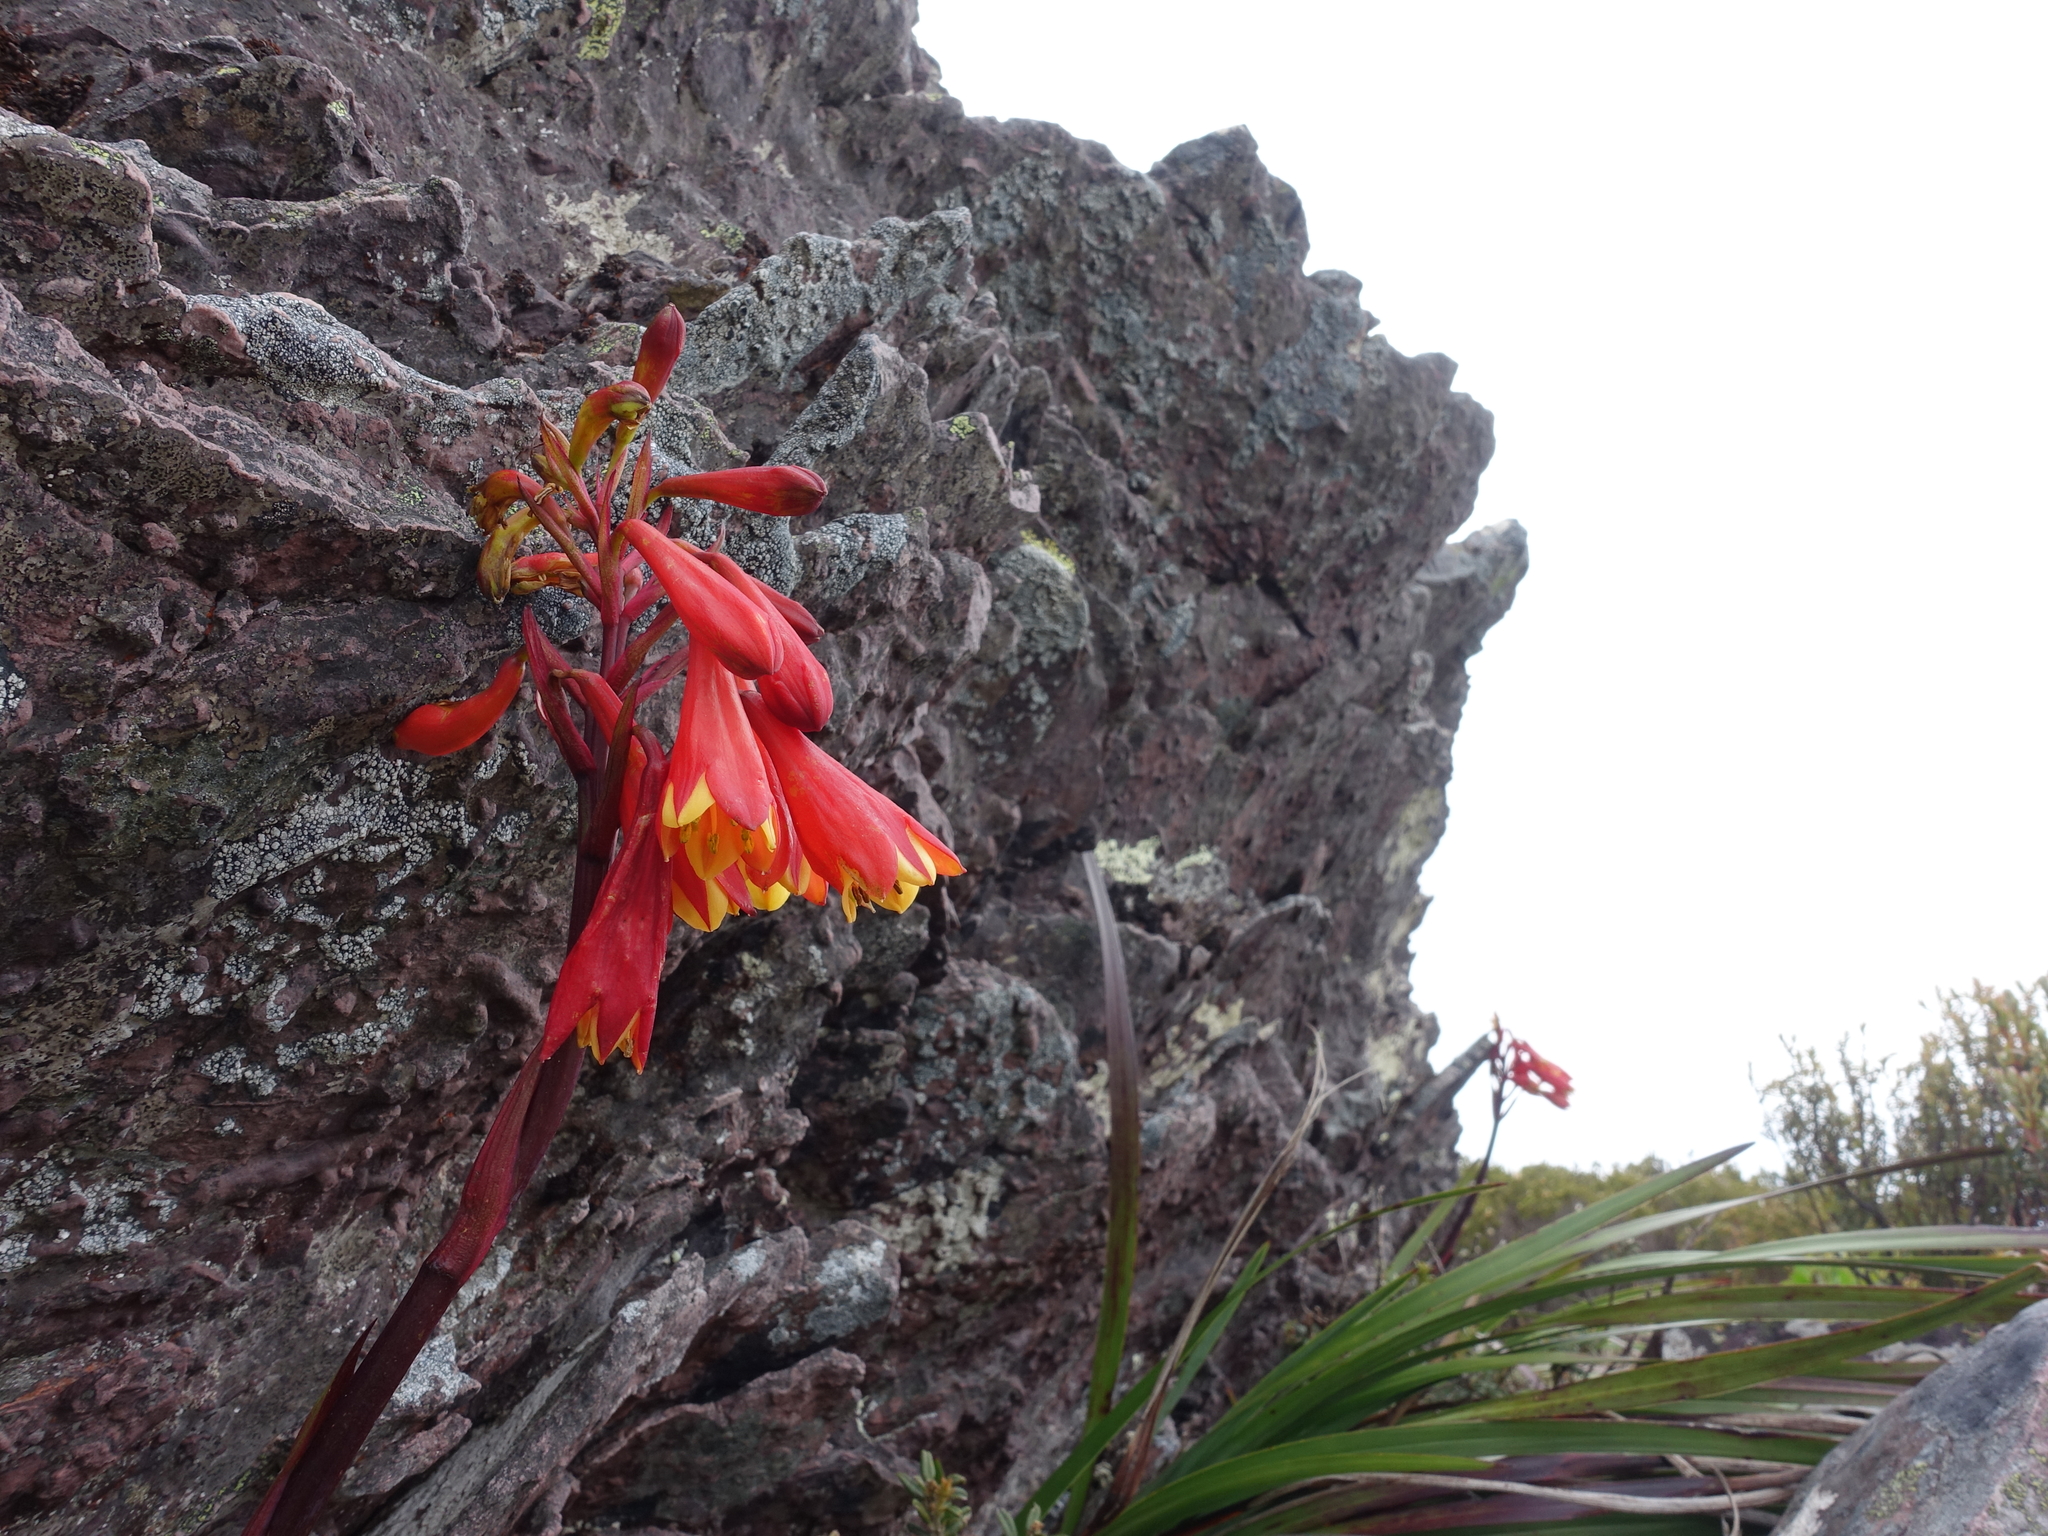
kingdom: Plantae
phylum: Tracheophyta
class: Liliopsida
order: Asparagales
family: Blandfordiaceae
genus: Blandfordia
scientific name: Blandfordia punicea
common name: Tasmanian christmas-bell
